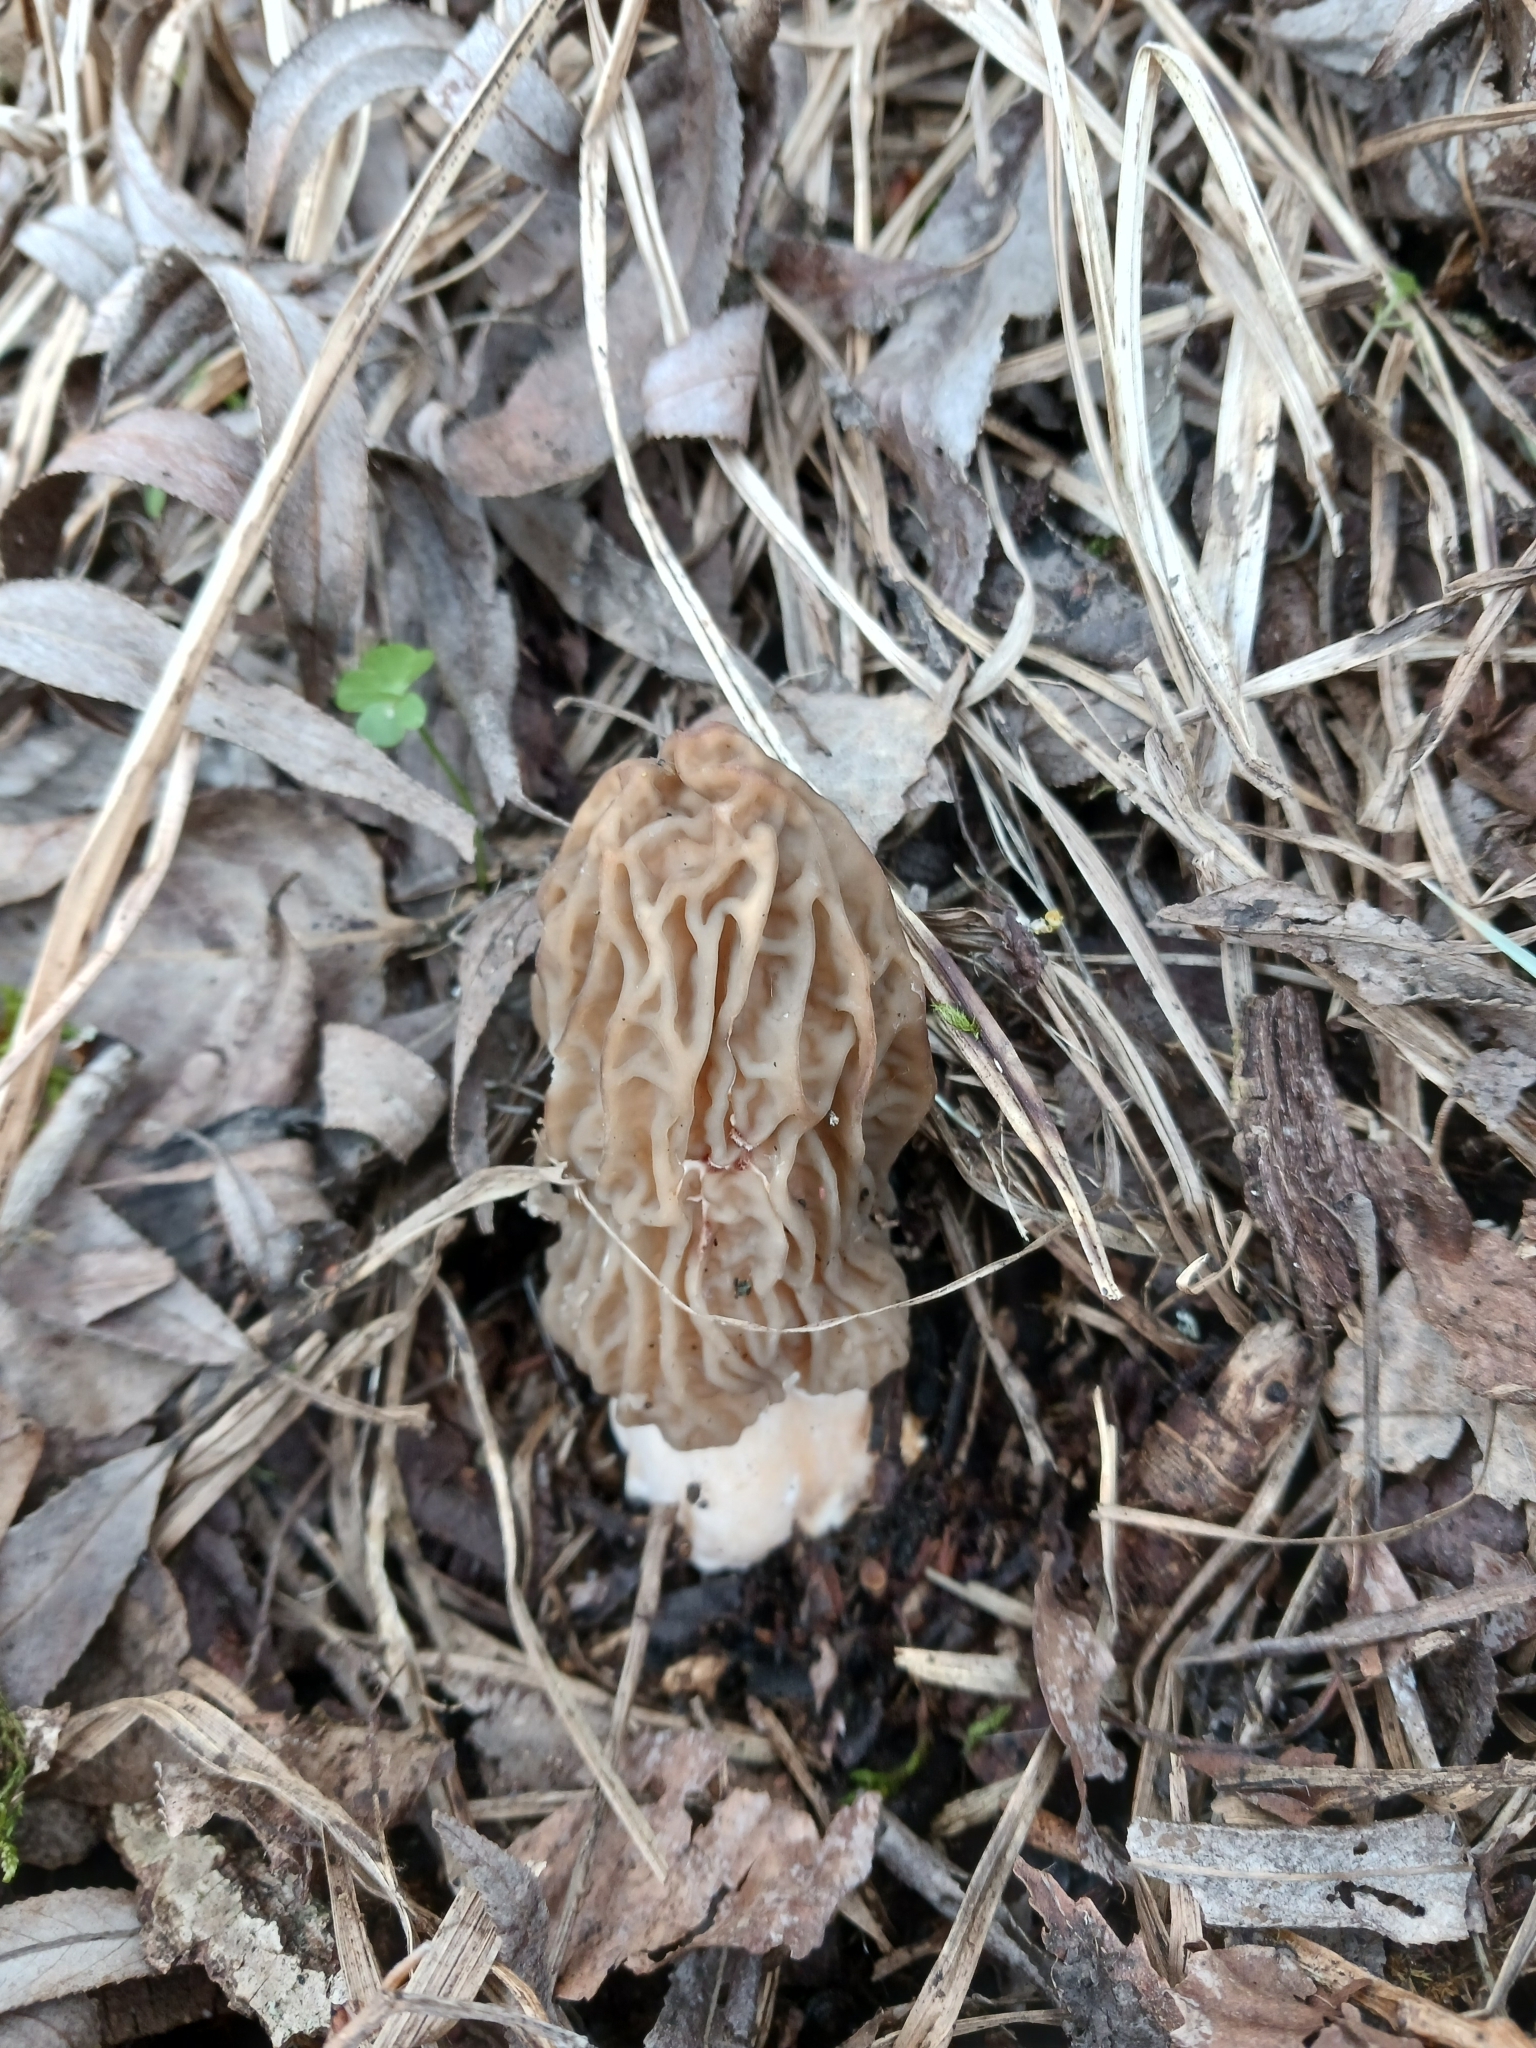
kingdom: Fungi
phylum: Ascomycota
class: Pezizomycetes
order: Pezizales
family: Morchellaceae
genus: Verpa
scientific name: Verpa bohemica
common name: Wrinkled thimble morel
